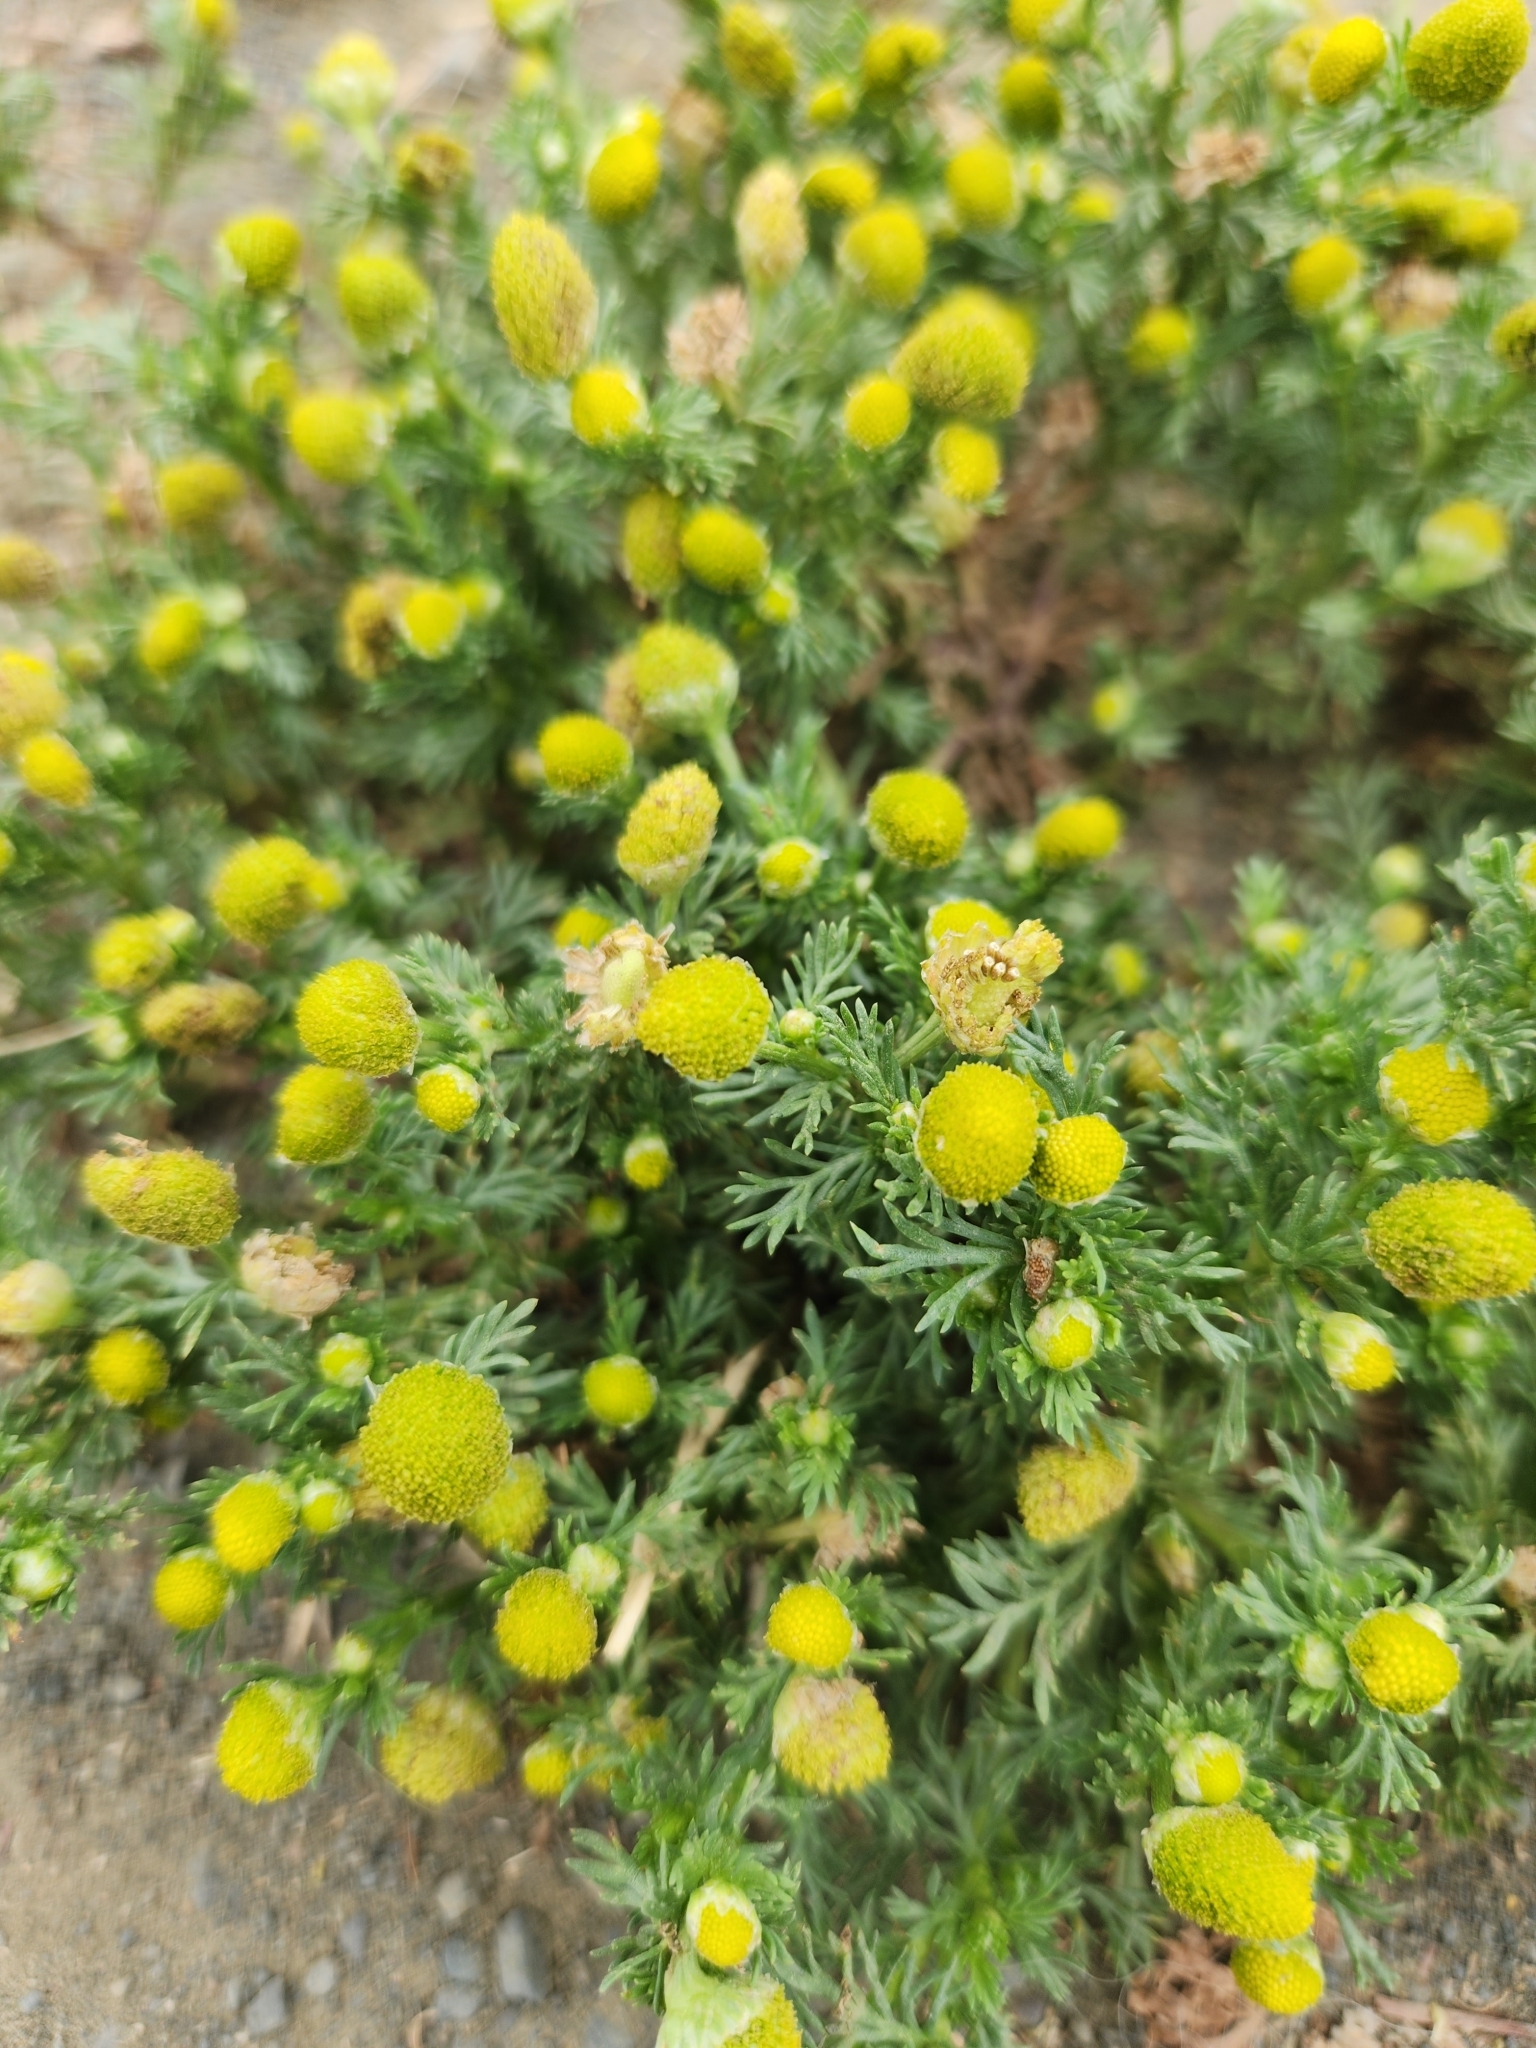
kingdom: Plantae
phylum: Tracheophyta
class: Magnoliopsida
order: Asterales
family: Asteraceae
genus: Matricaria
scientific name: Matricaria discoidea
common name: Disc mayweed
